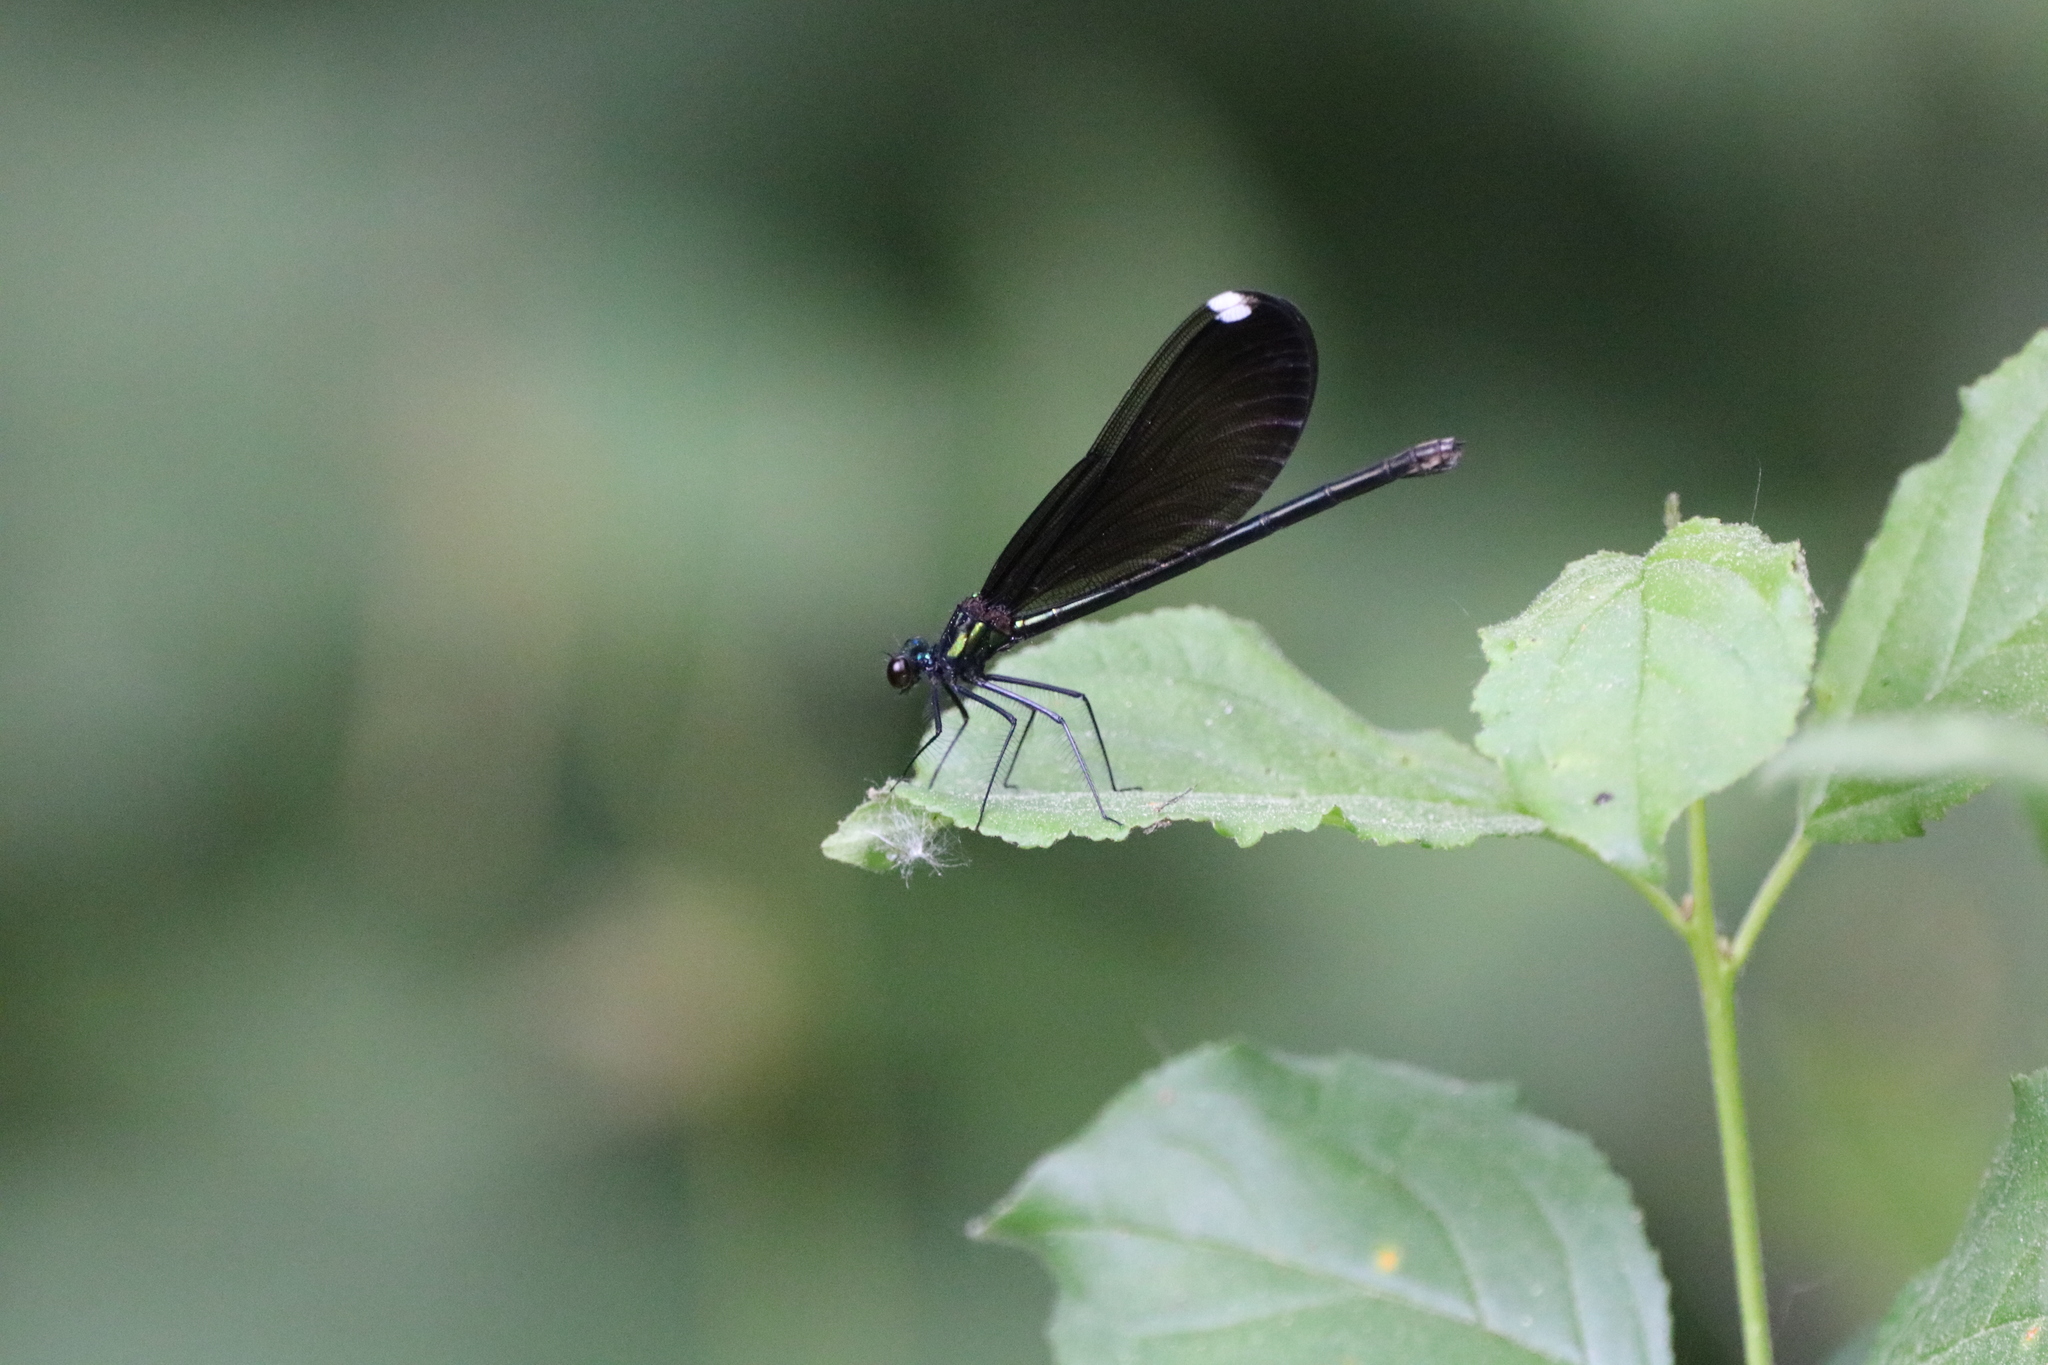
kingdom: Animalia
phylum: Arthropoda
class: Insecta
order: Odonata
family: Calopterygidae
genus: Calopteryx
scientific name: Calopteryx maculata
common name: Ebony jewelwing
